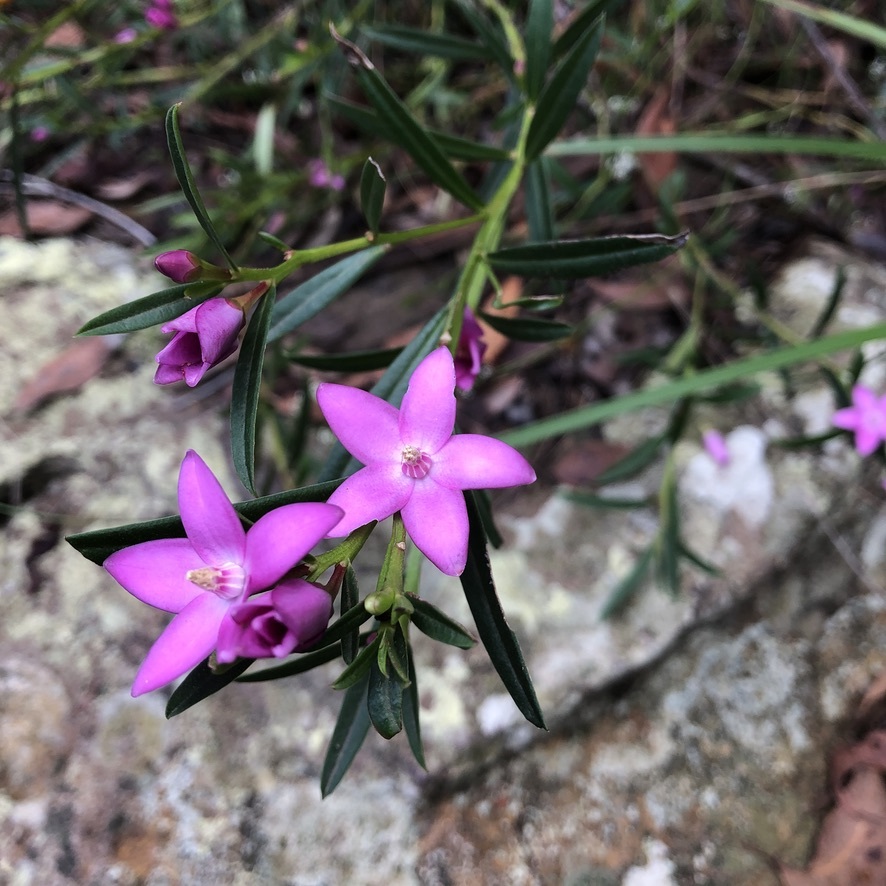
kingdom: Plantae
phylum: Tracheophyta
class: Magnoliopsida
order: Sapindales
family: Rutaceae
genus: Crowea
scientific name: Crowea saligna
